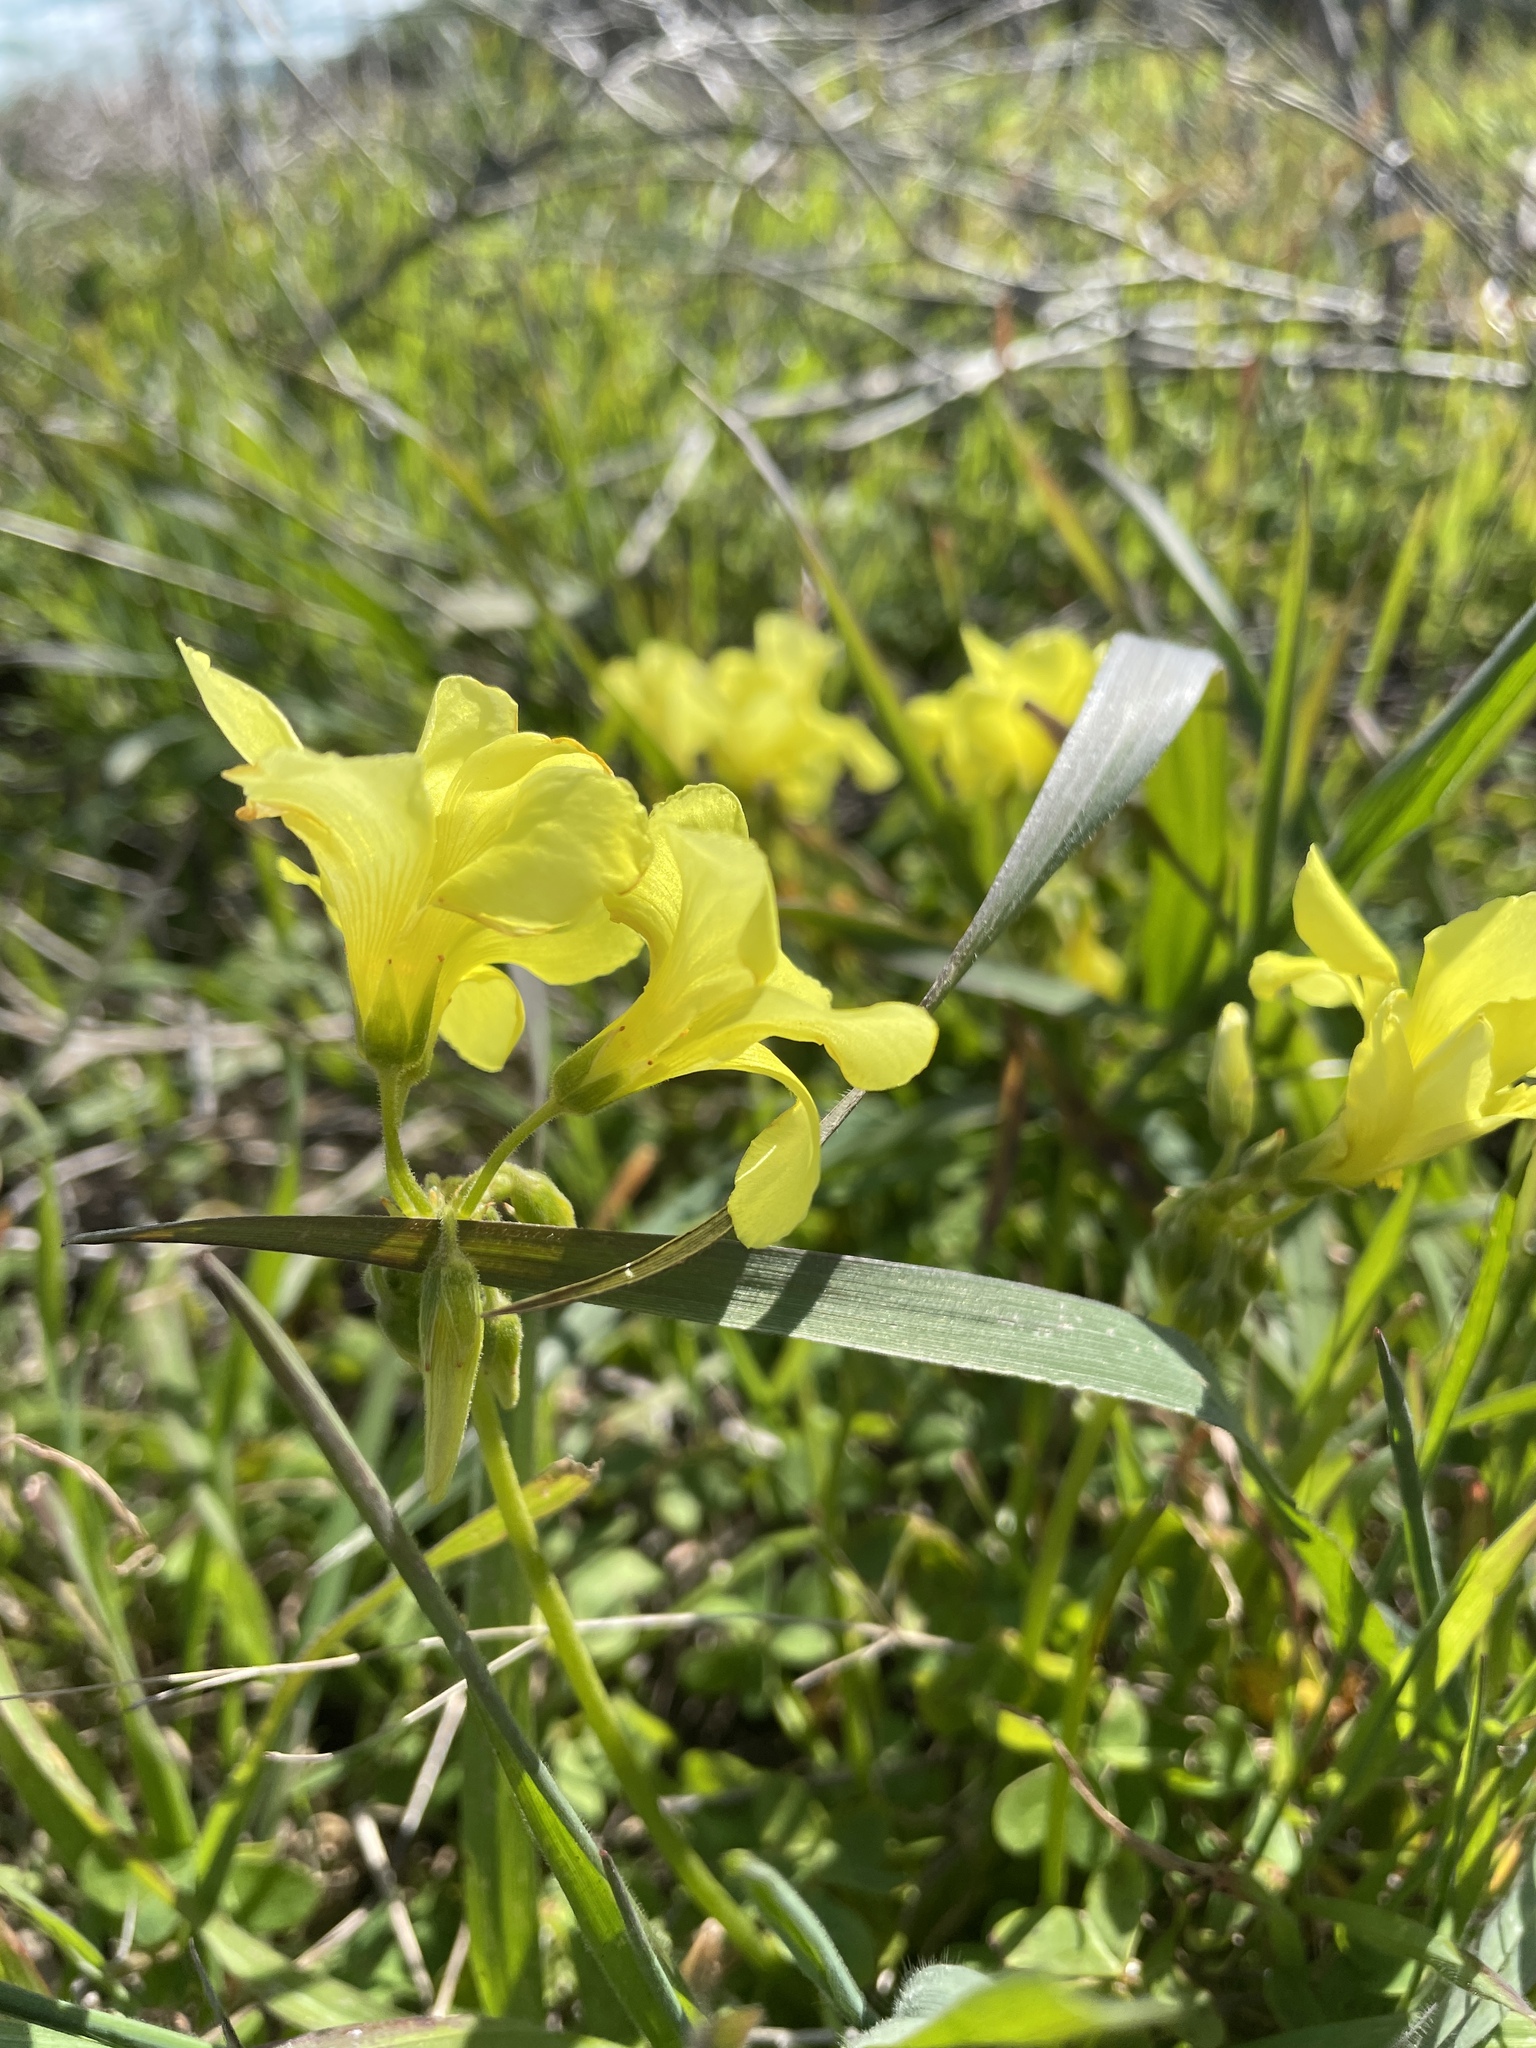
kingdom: Plantae
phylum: Tracheophyta
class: Magnoliopsida
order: Oxalidales
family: Oxalidaceae
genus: Oxalis
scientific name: Oxalis pes-caprae
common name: Bermuda-buttercup
